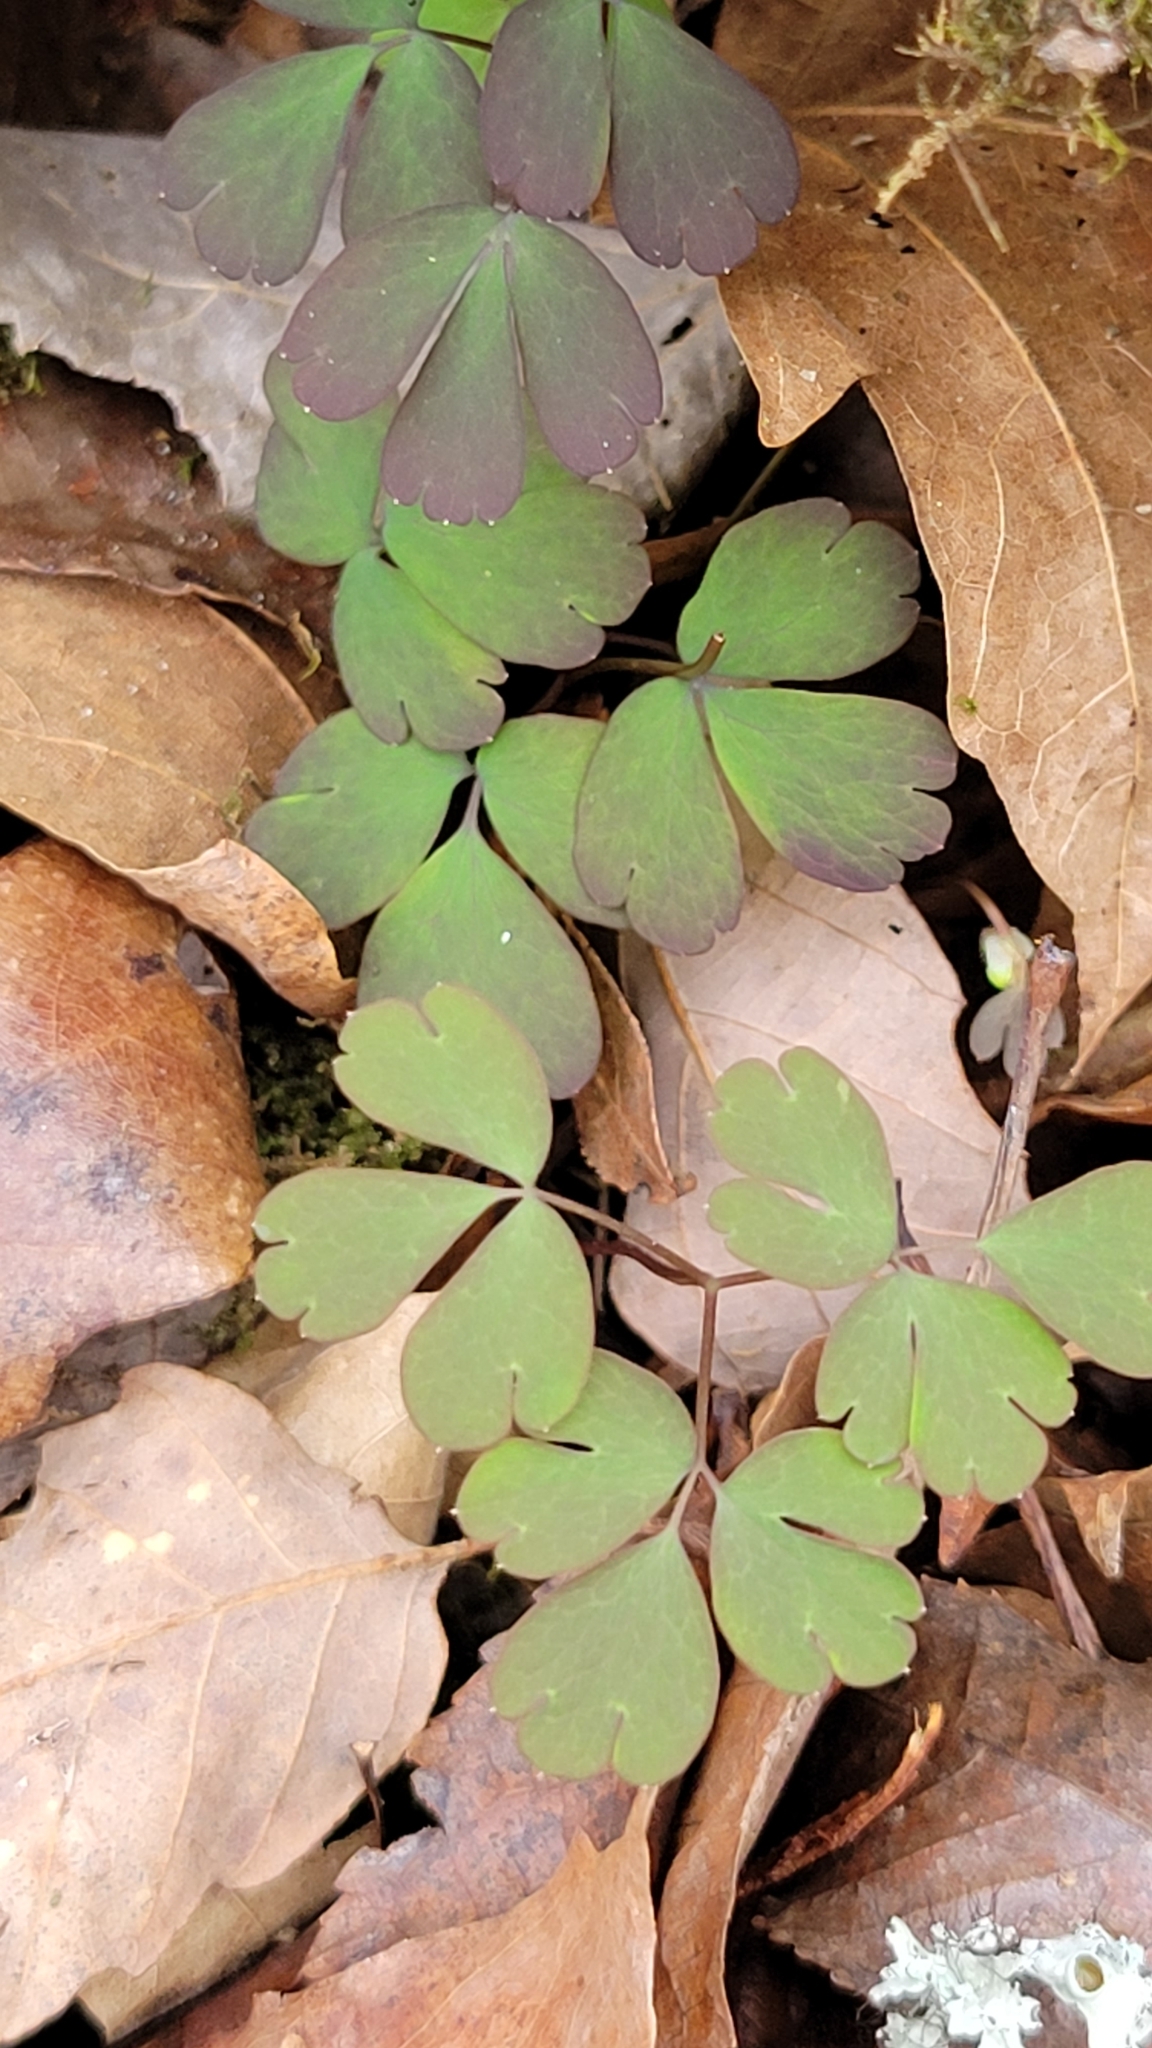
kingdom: Plantae
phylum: Tracheophyta
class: Magnoliopsida
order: Ranunculales
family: Ranunculaceae
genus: Thalictrum
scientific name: Thalictrum thalictroides
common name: Rue-anemone
